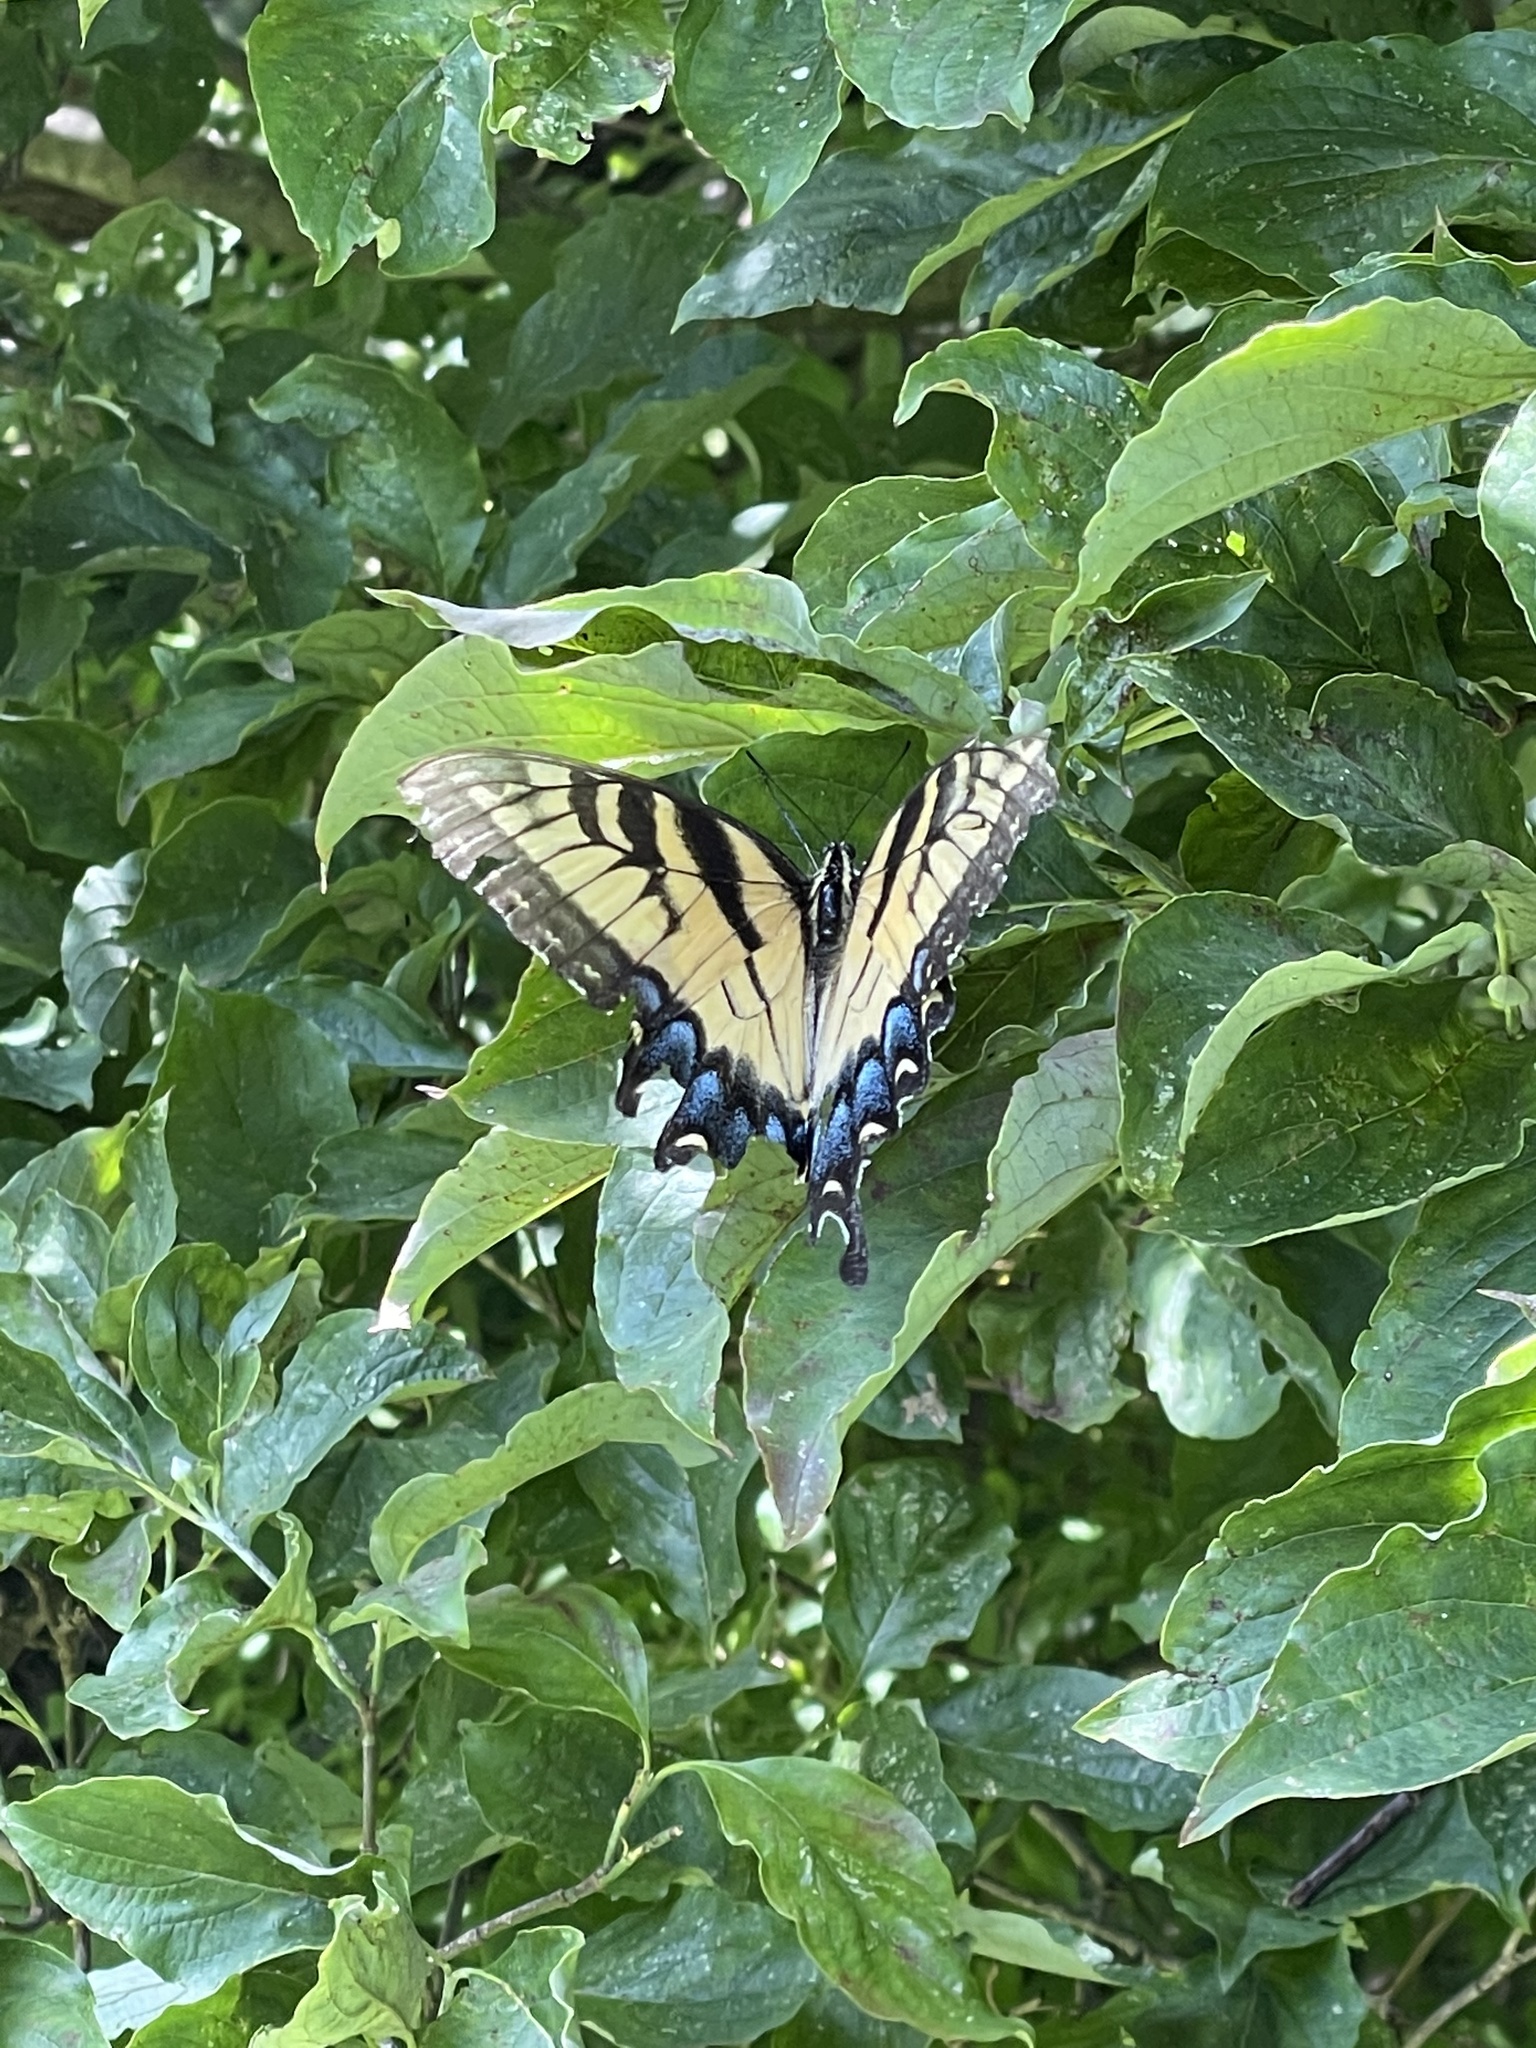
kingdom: Animalia
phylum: Arthropoda
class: Insecta
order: Lepidoptera
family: Papilionidae
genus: Papilio
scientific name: Papilio glaucus
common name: Tiger swallowtail
